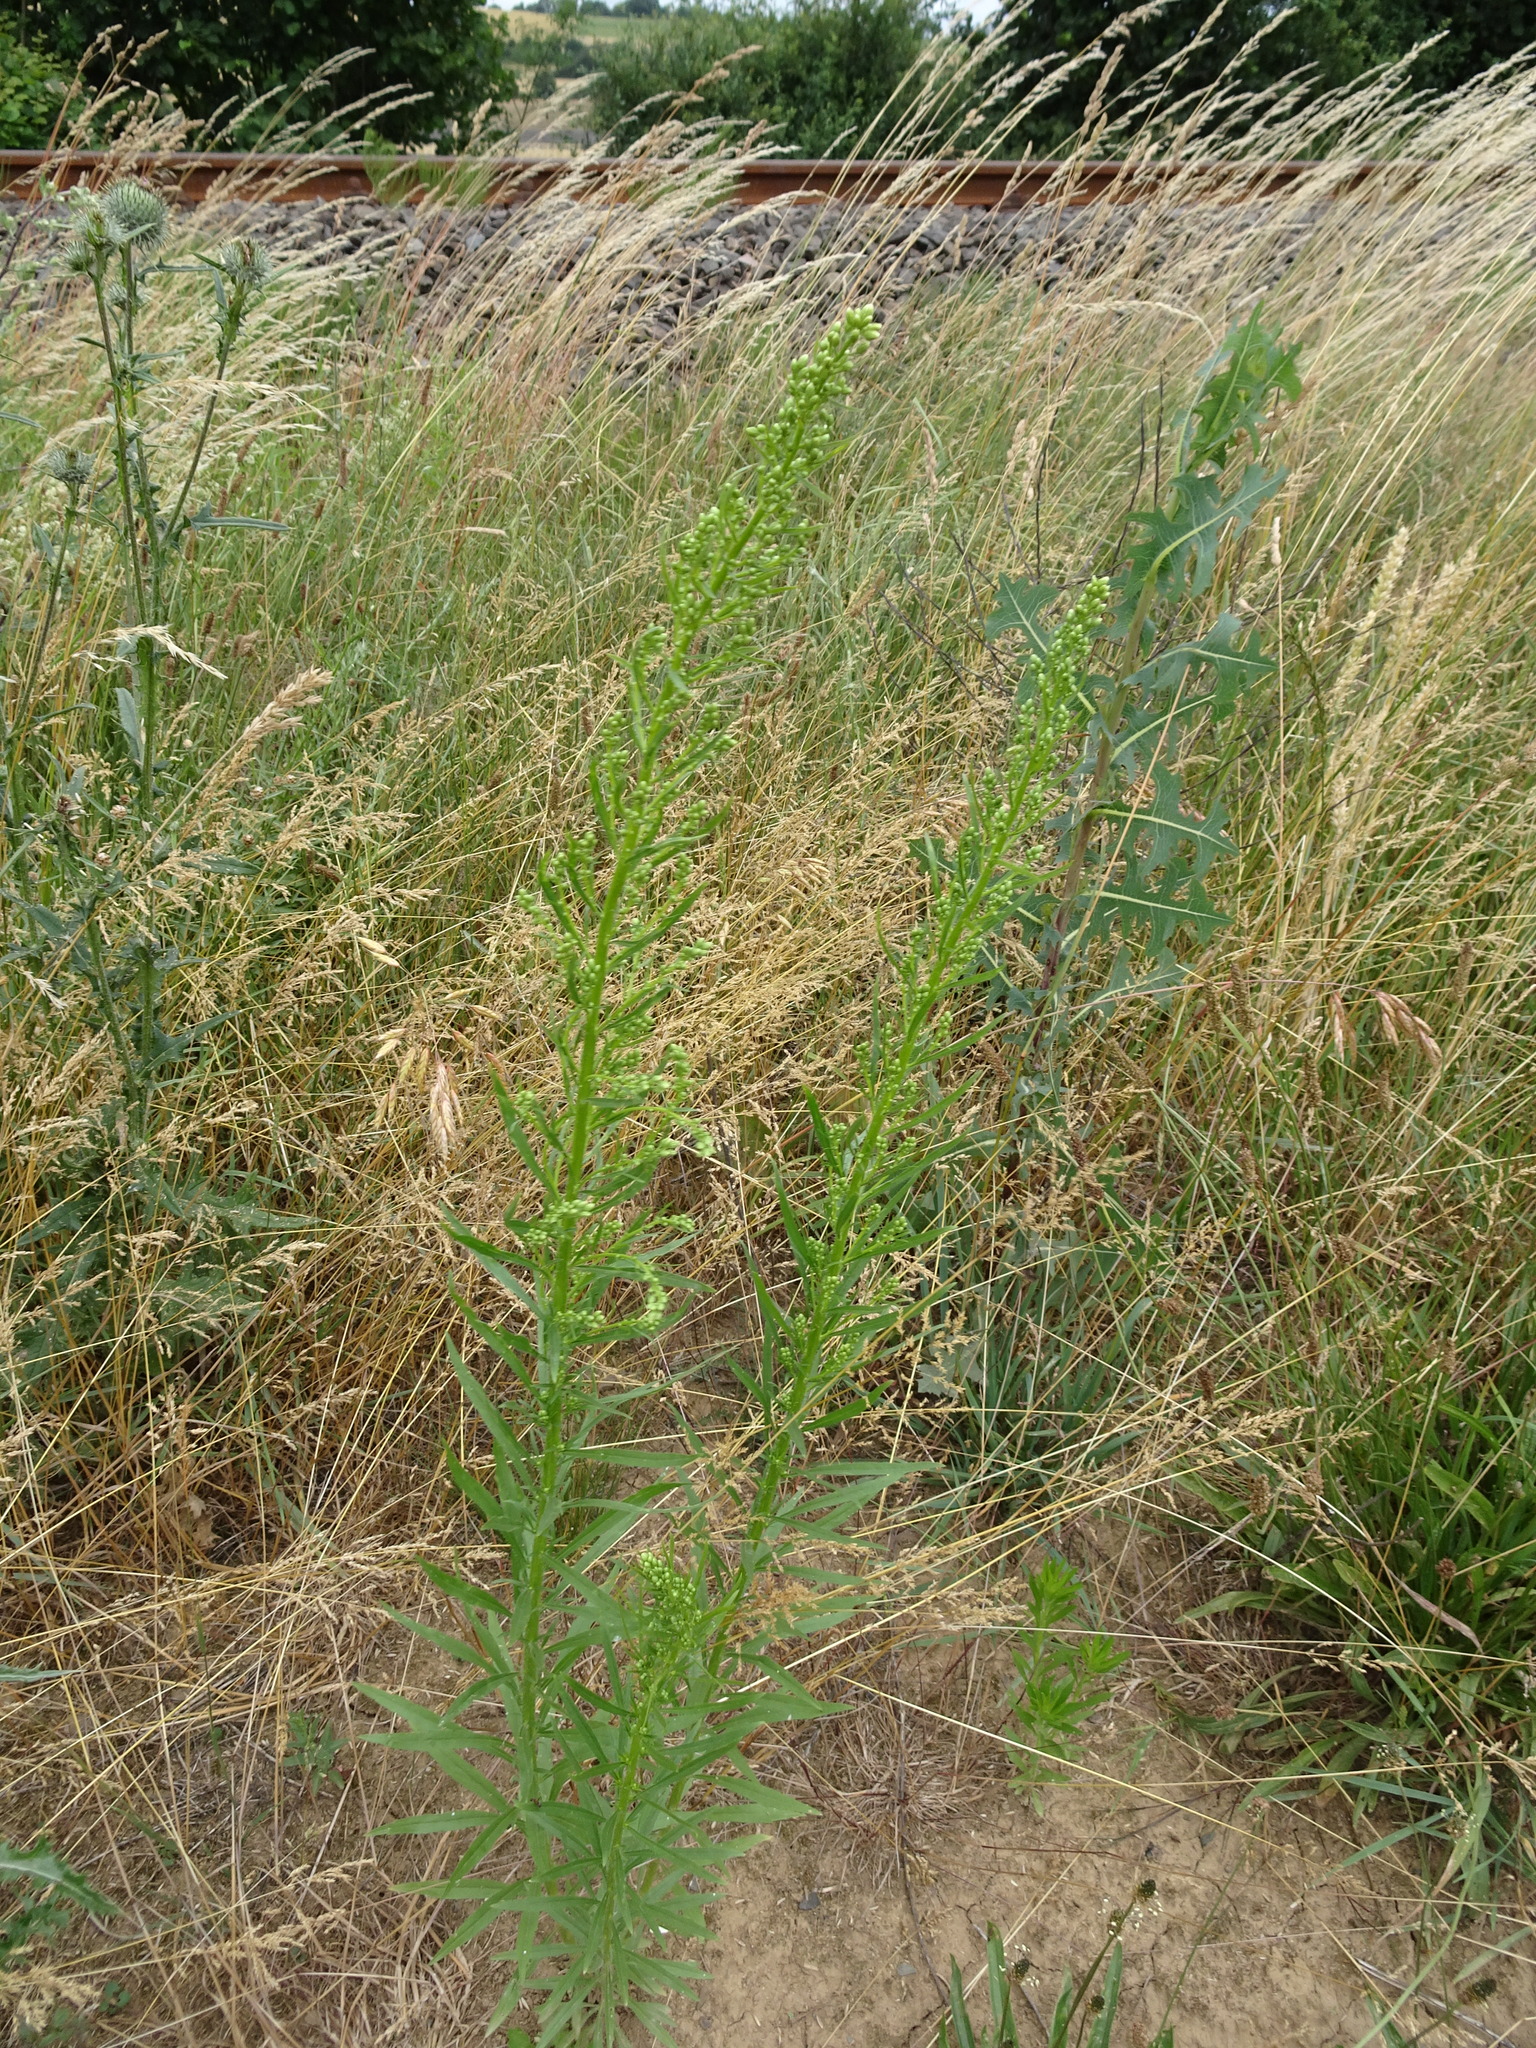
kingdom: Plantae
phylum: Tracheophyta
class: Magnoliopsida
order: Asterales
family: Asteraceae
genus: Erigeron
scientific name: Erigeron canadensis
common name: Canadian fleabane
